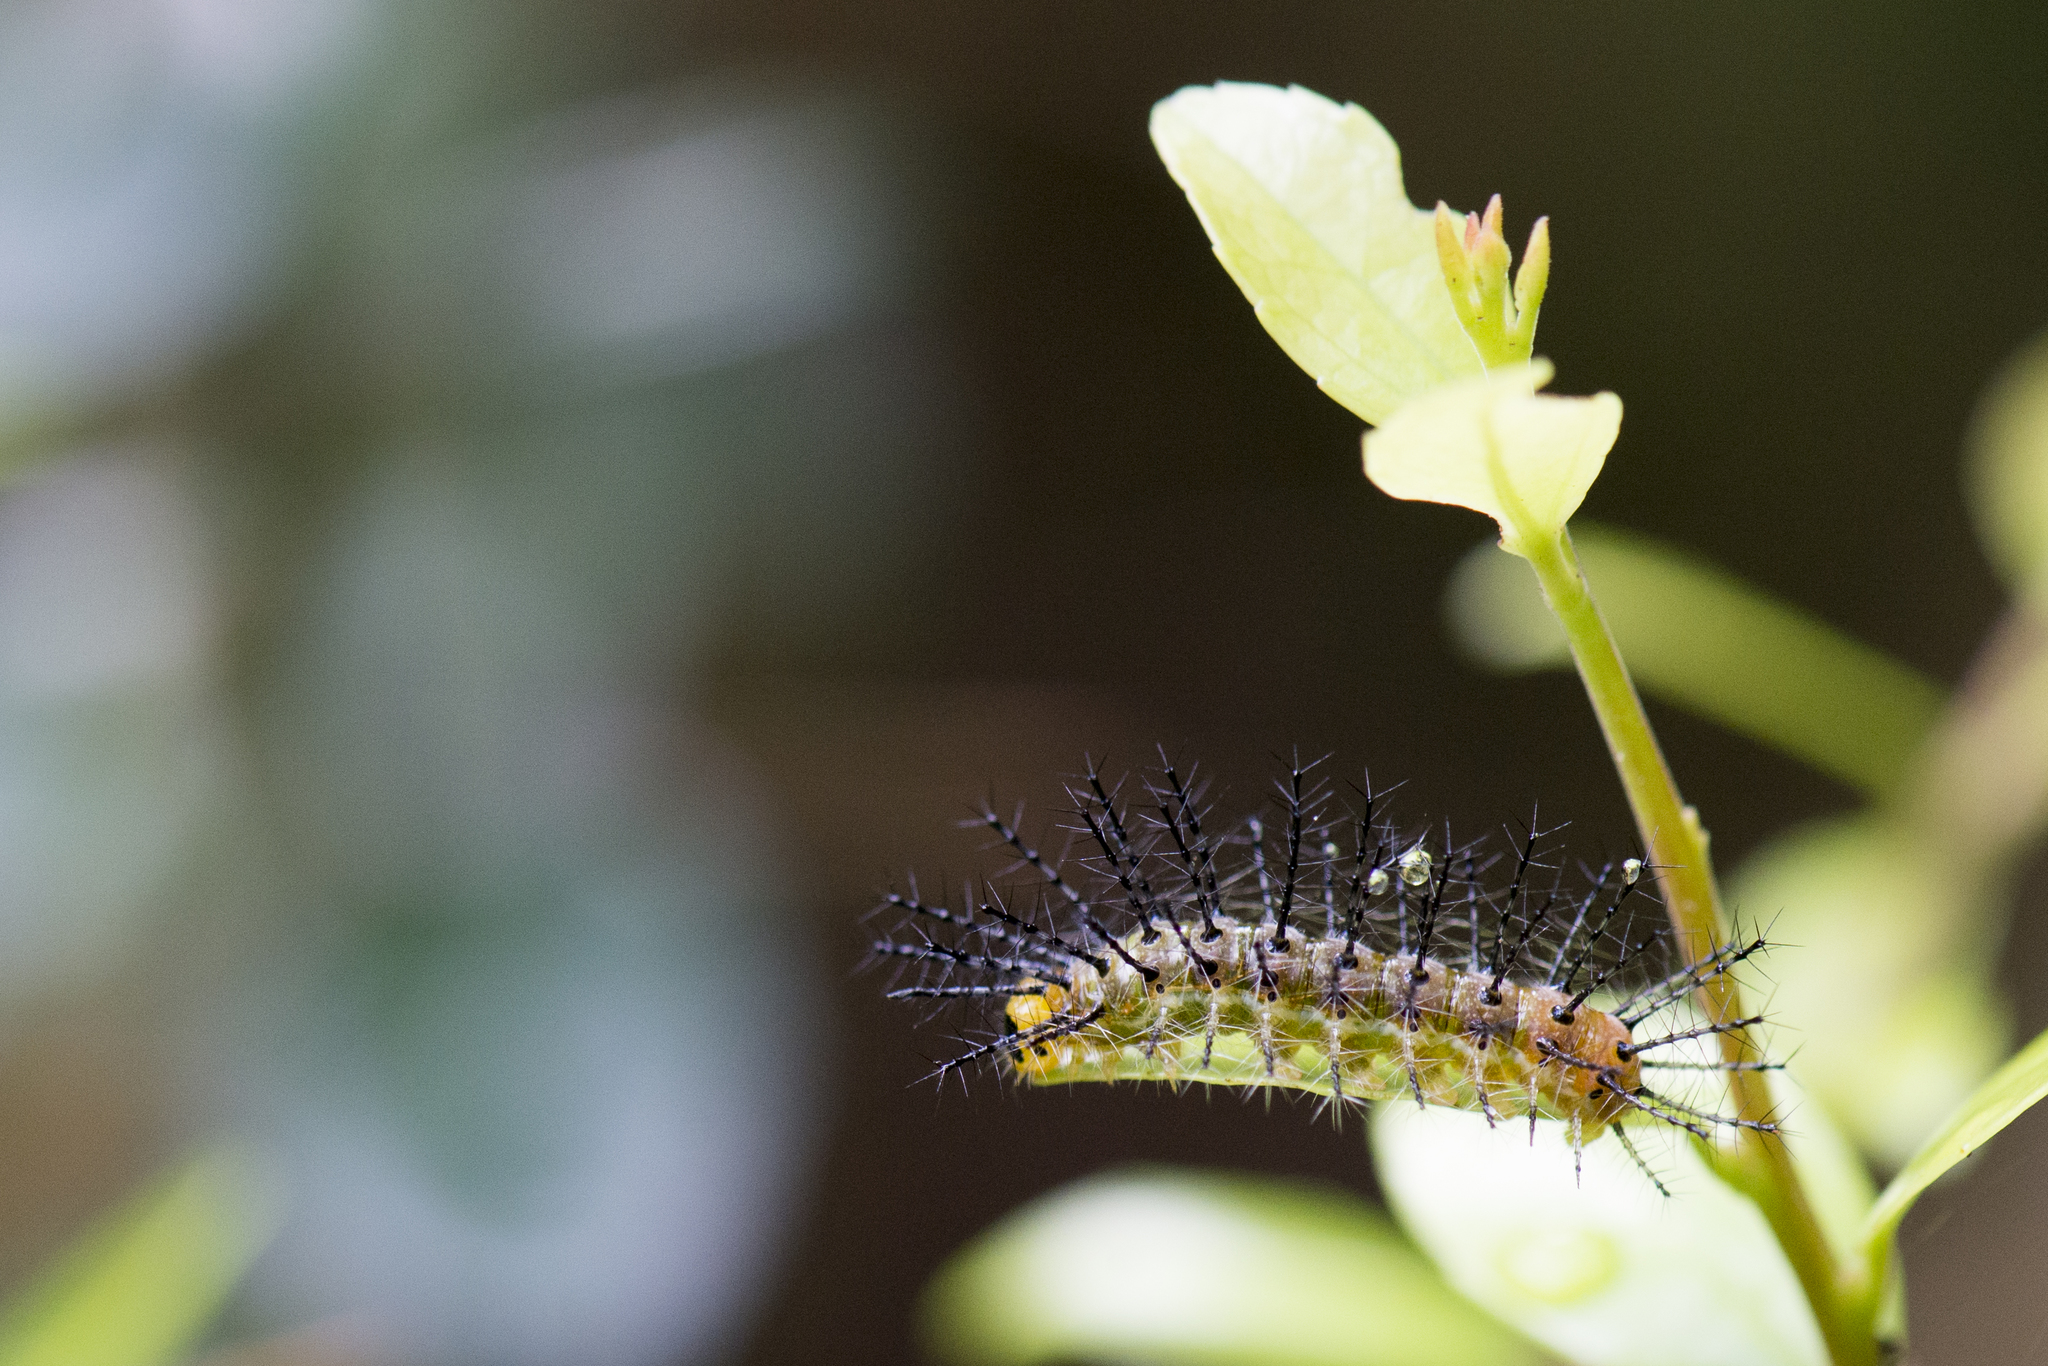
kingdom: Animalia
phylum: Arthropoda
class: Insecta
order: Lepidoptera
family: Nymphalidae
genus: Cupha
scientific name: Cupha erymanthis
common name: Rustic
